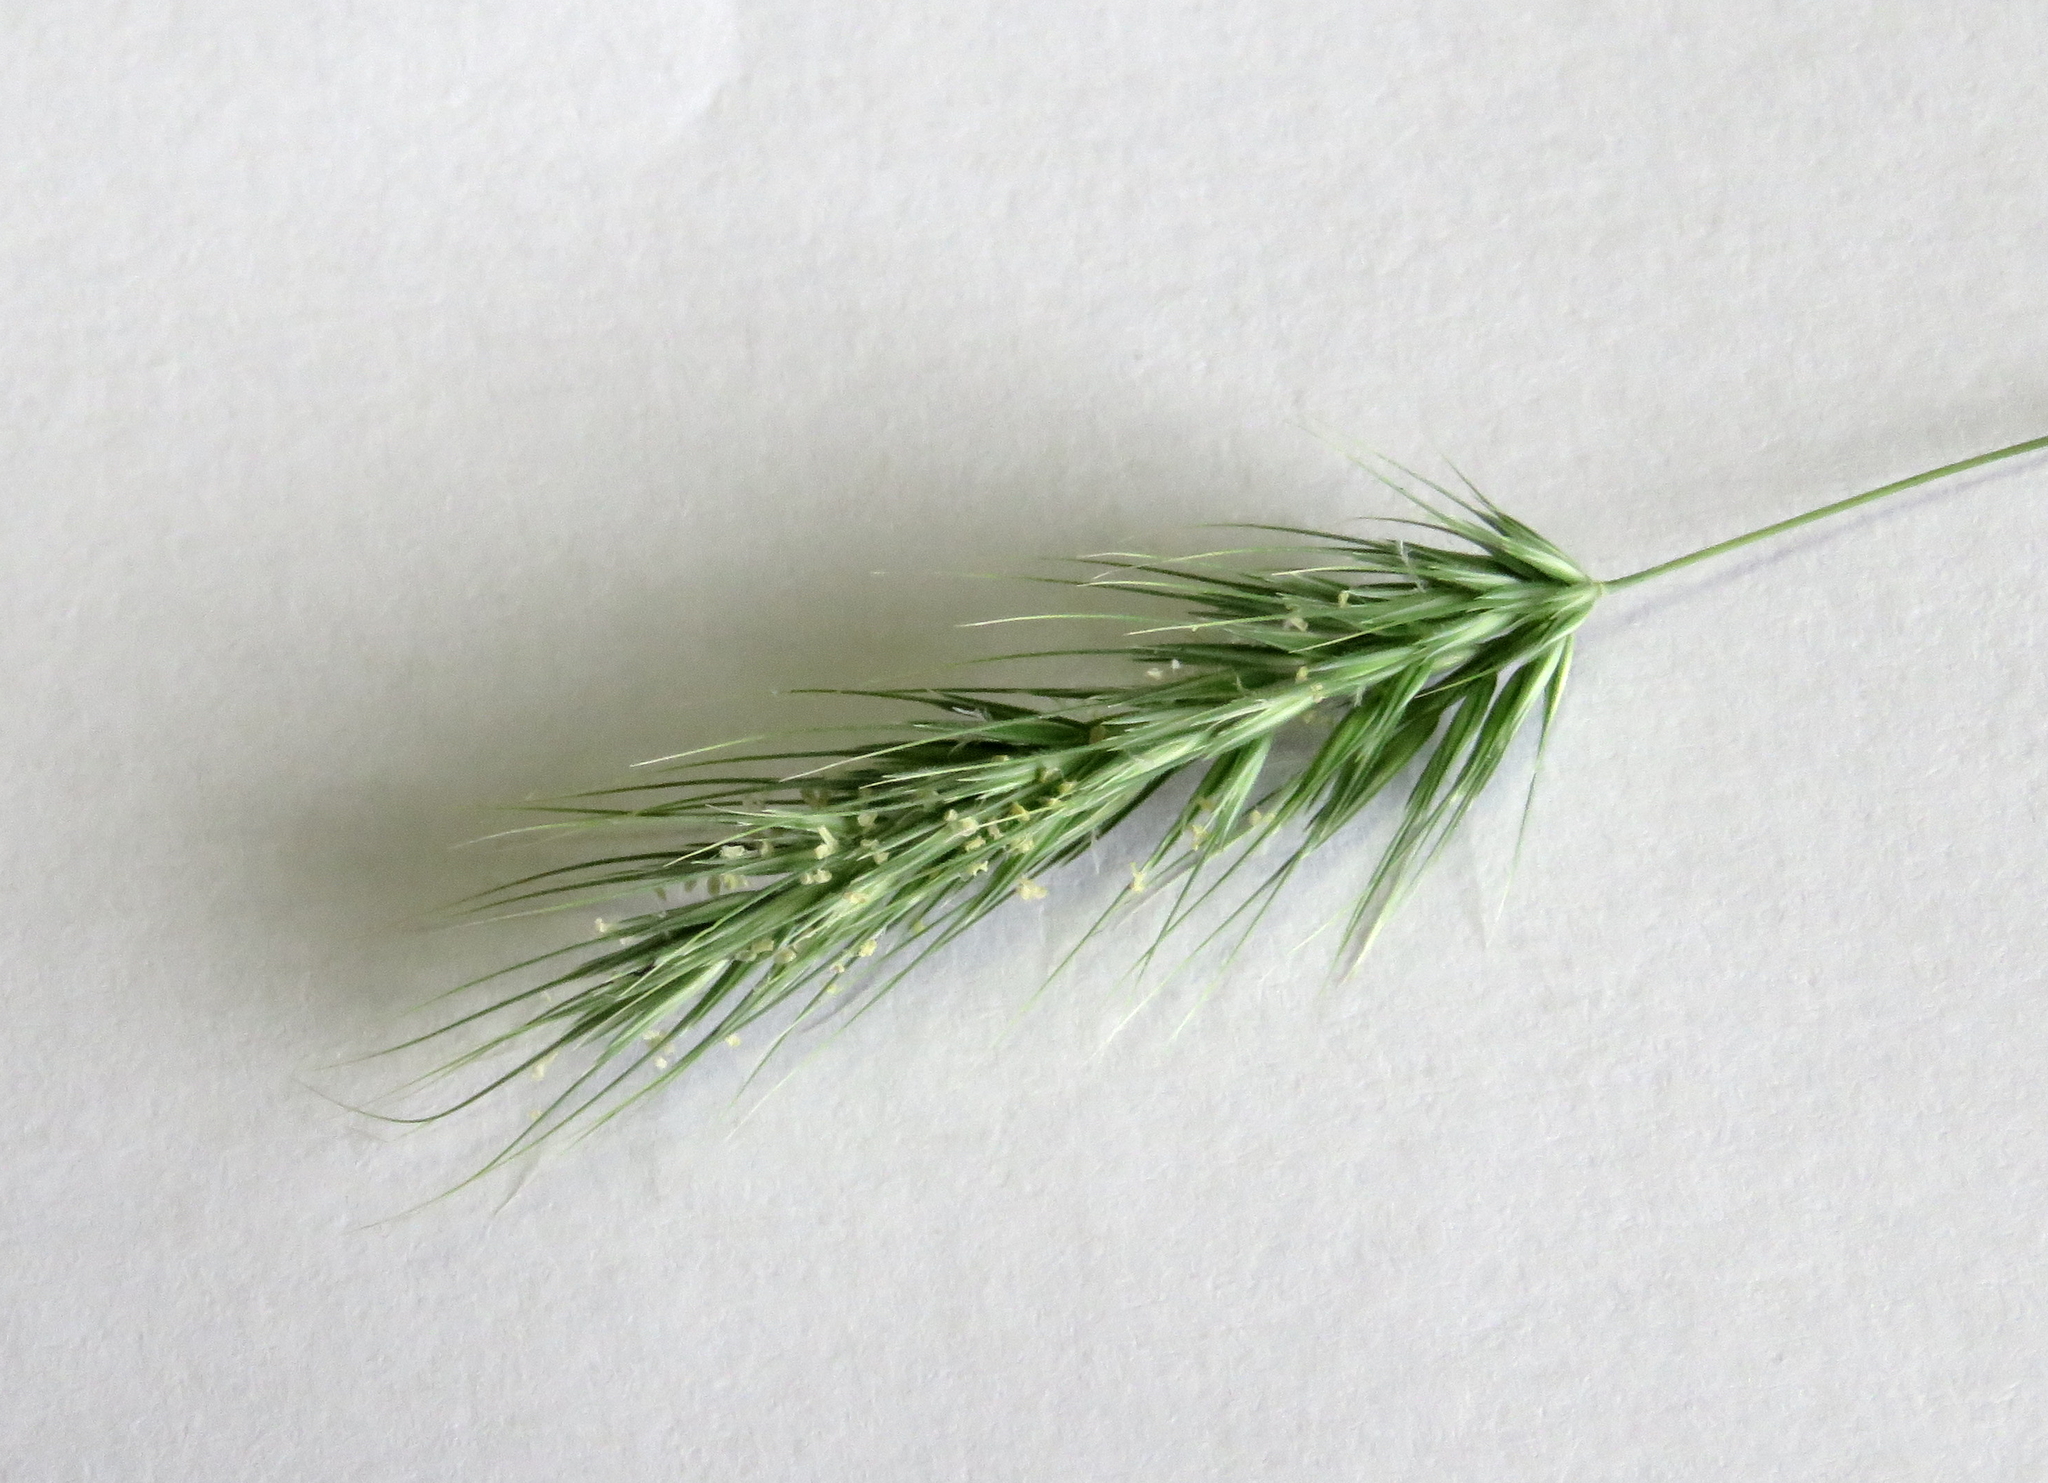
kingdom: Plantae
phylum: Tracheophyta
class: Liliopsida
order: Poales
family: Poaceae
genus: Echinopogon
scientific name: Echinopogon ovatus
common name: Hedgehog-grass
